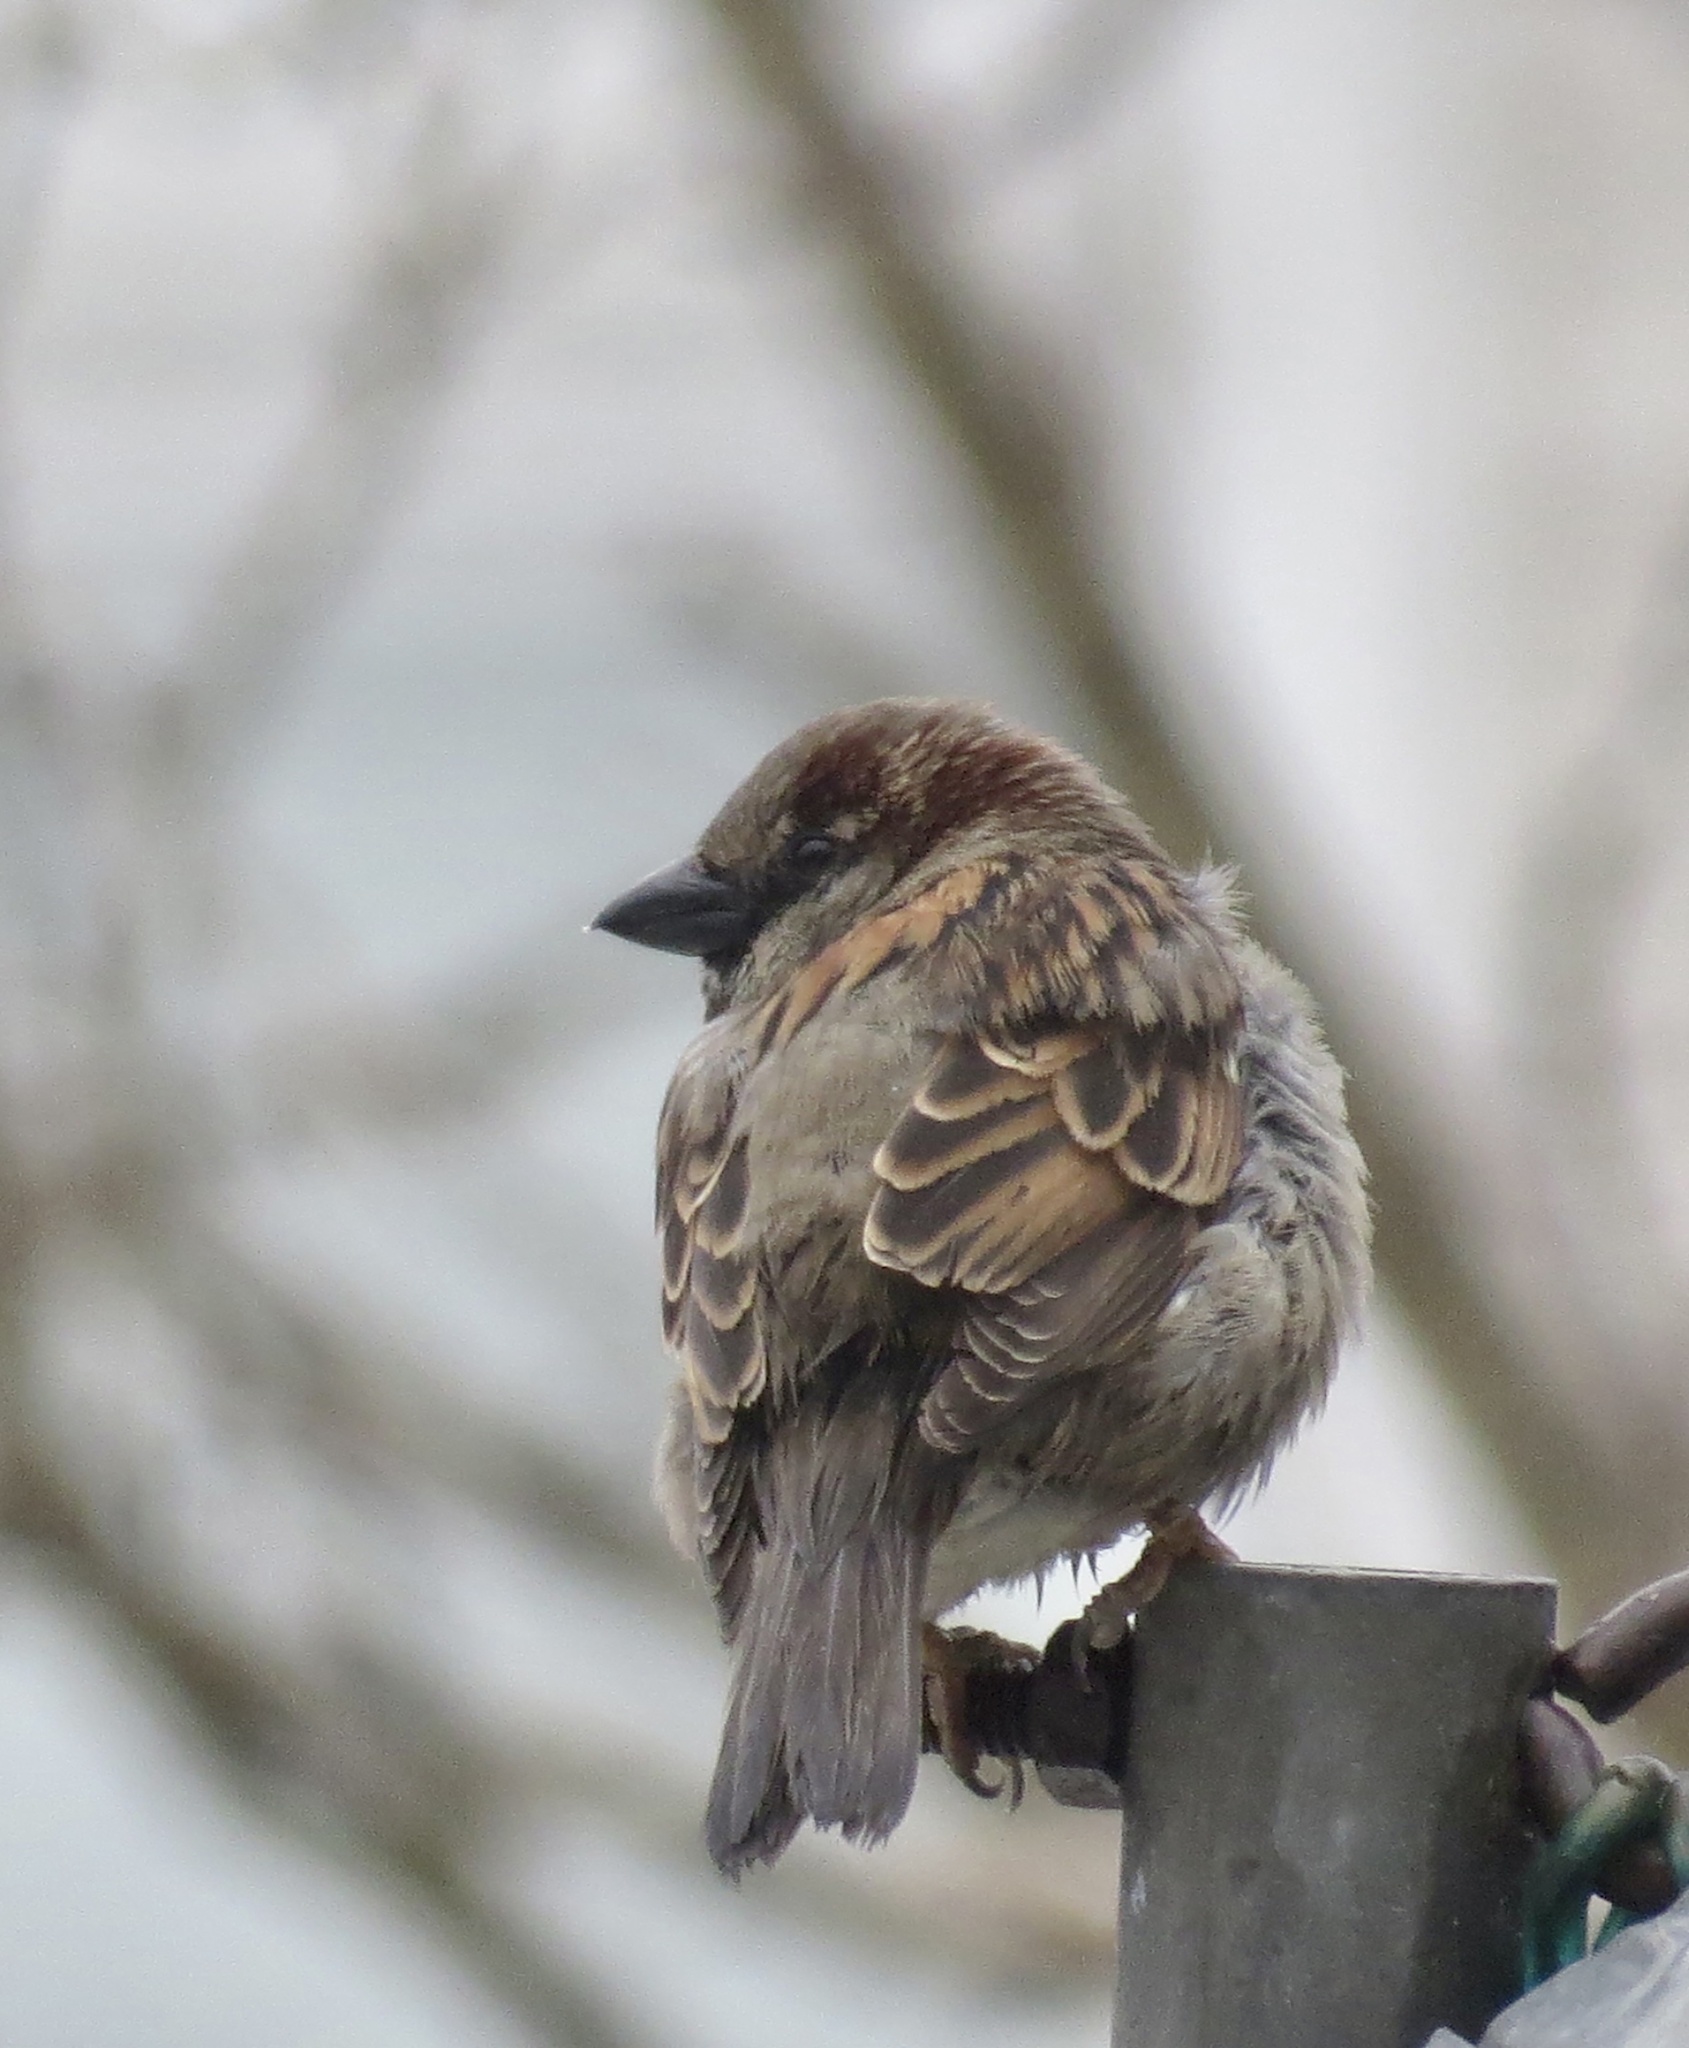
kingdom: Animalia
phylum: Chordata
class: Aves
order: Passeriformes
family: Passeridae
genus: Passer
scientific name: Passer domesticus
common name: House sparrow
